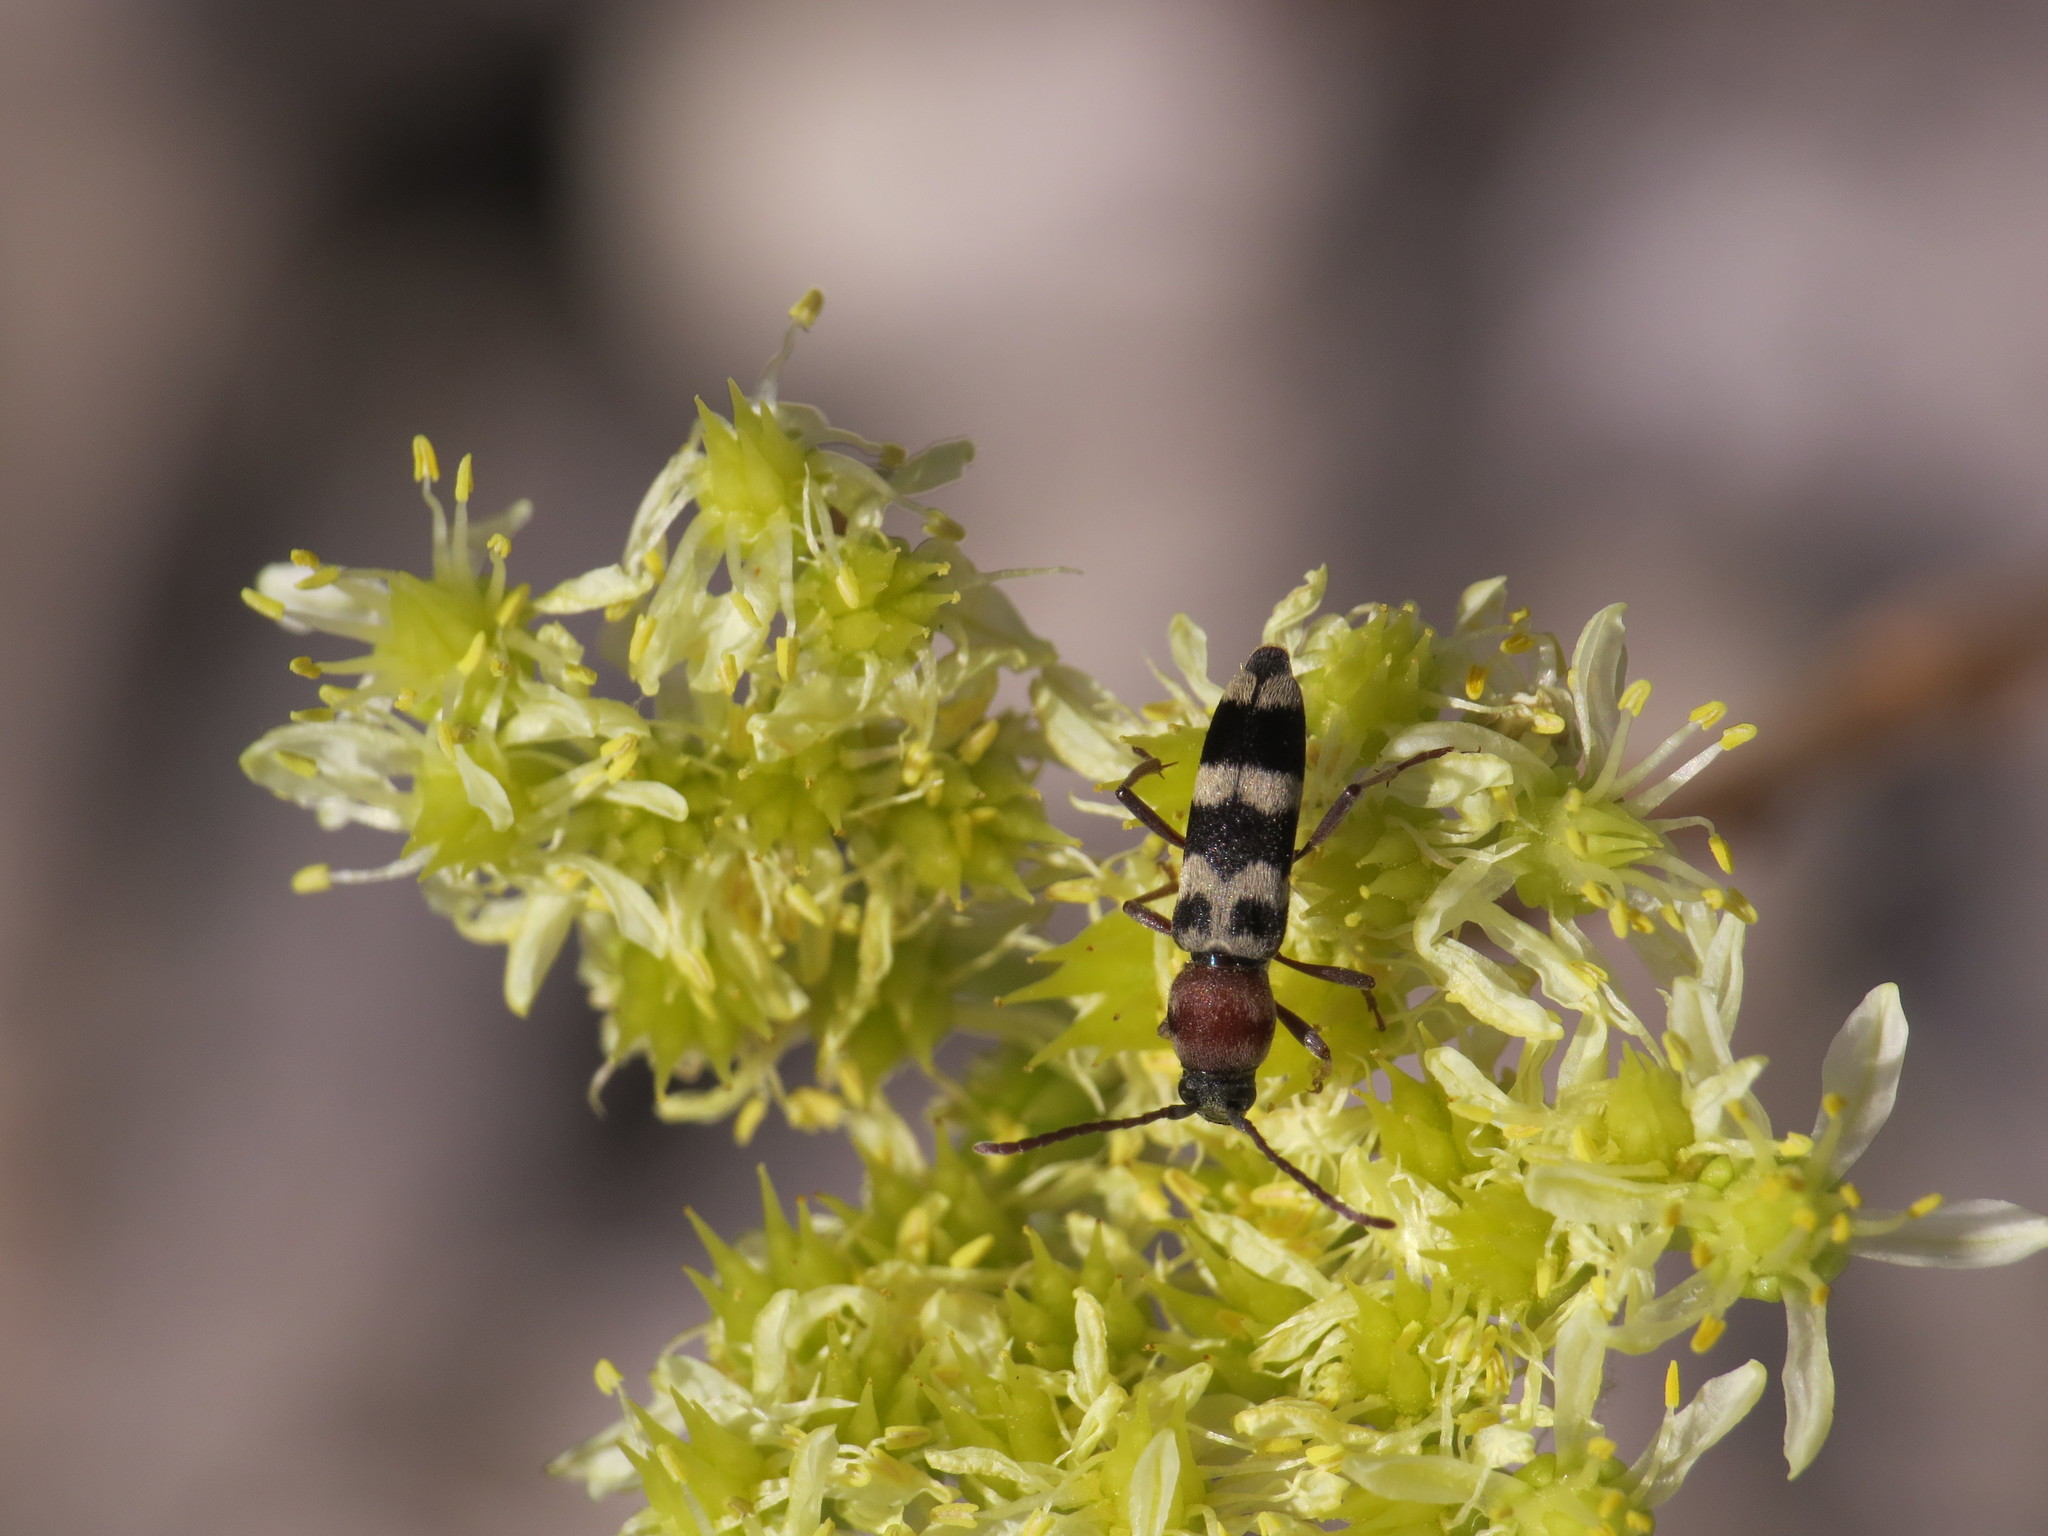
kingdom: Animalia
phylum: Arthropoda
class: Insecta
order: Coleoptera
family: Cerambycidae
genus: Chlorophorus
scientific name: Chlorophorus trifasciatus
